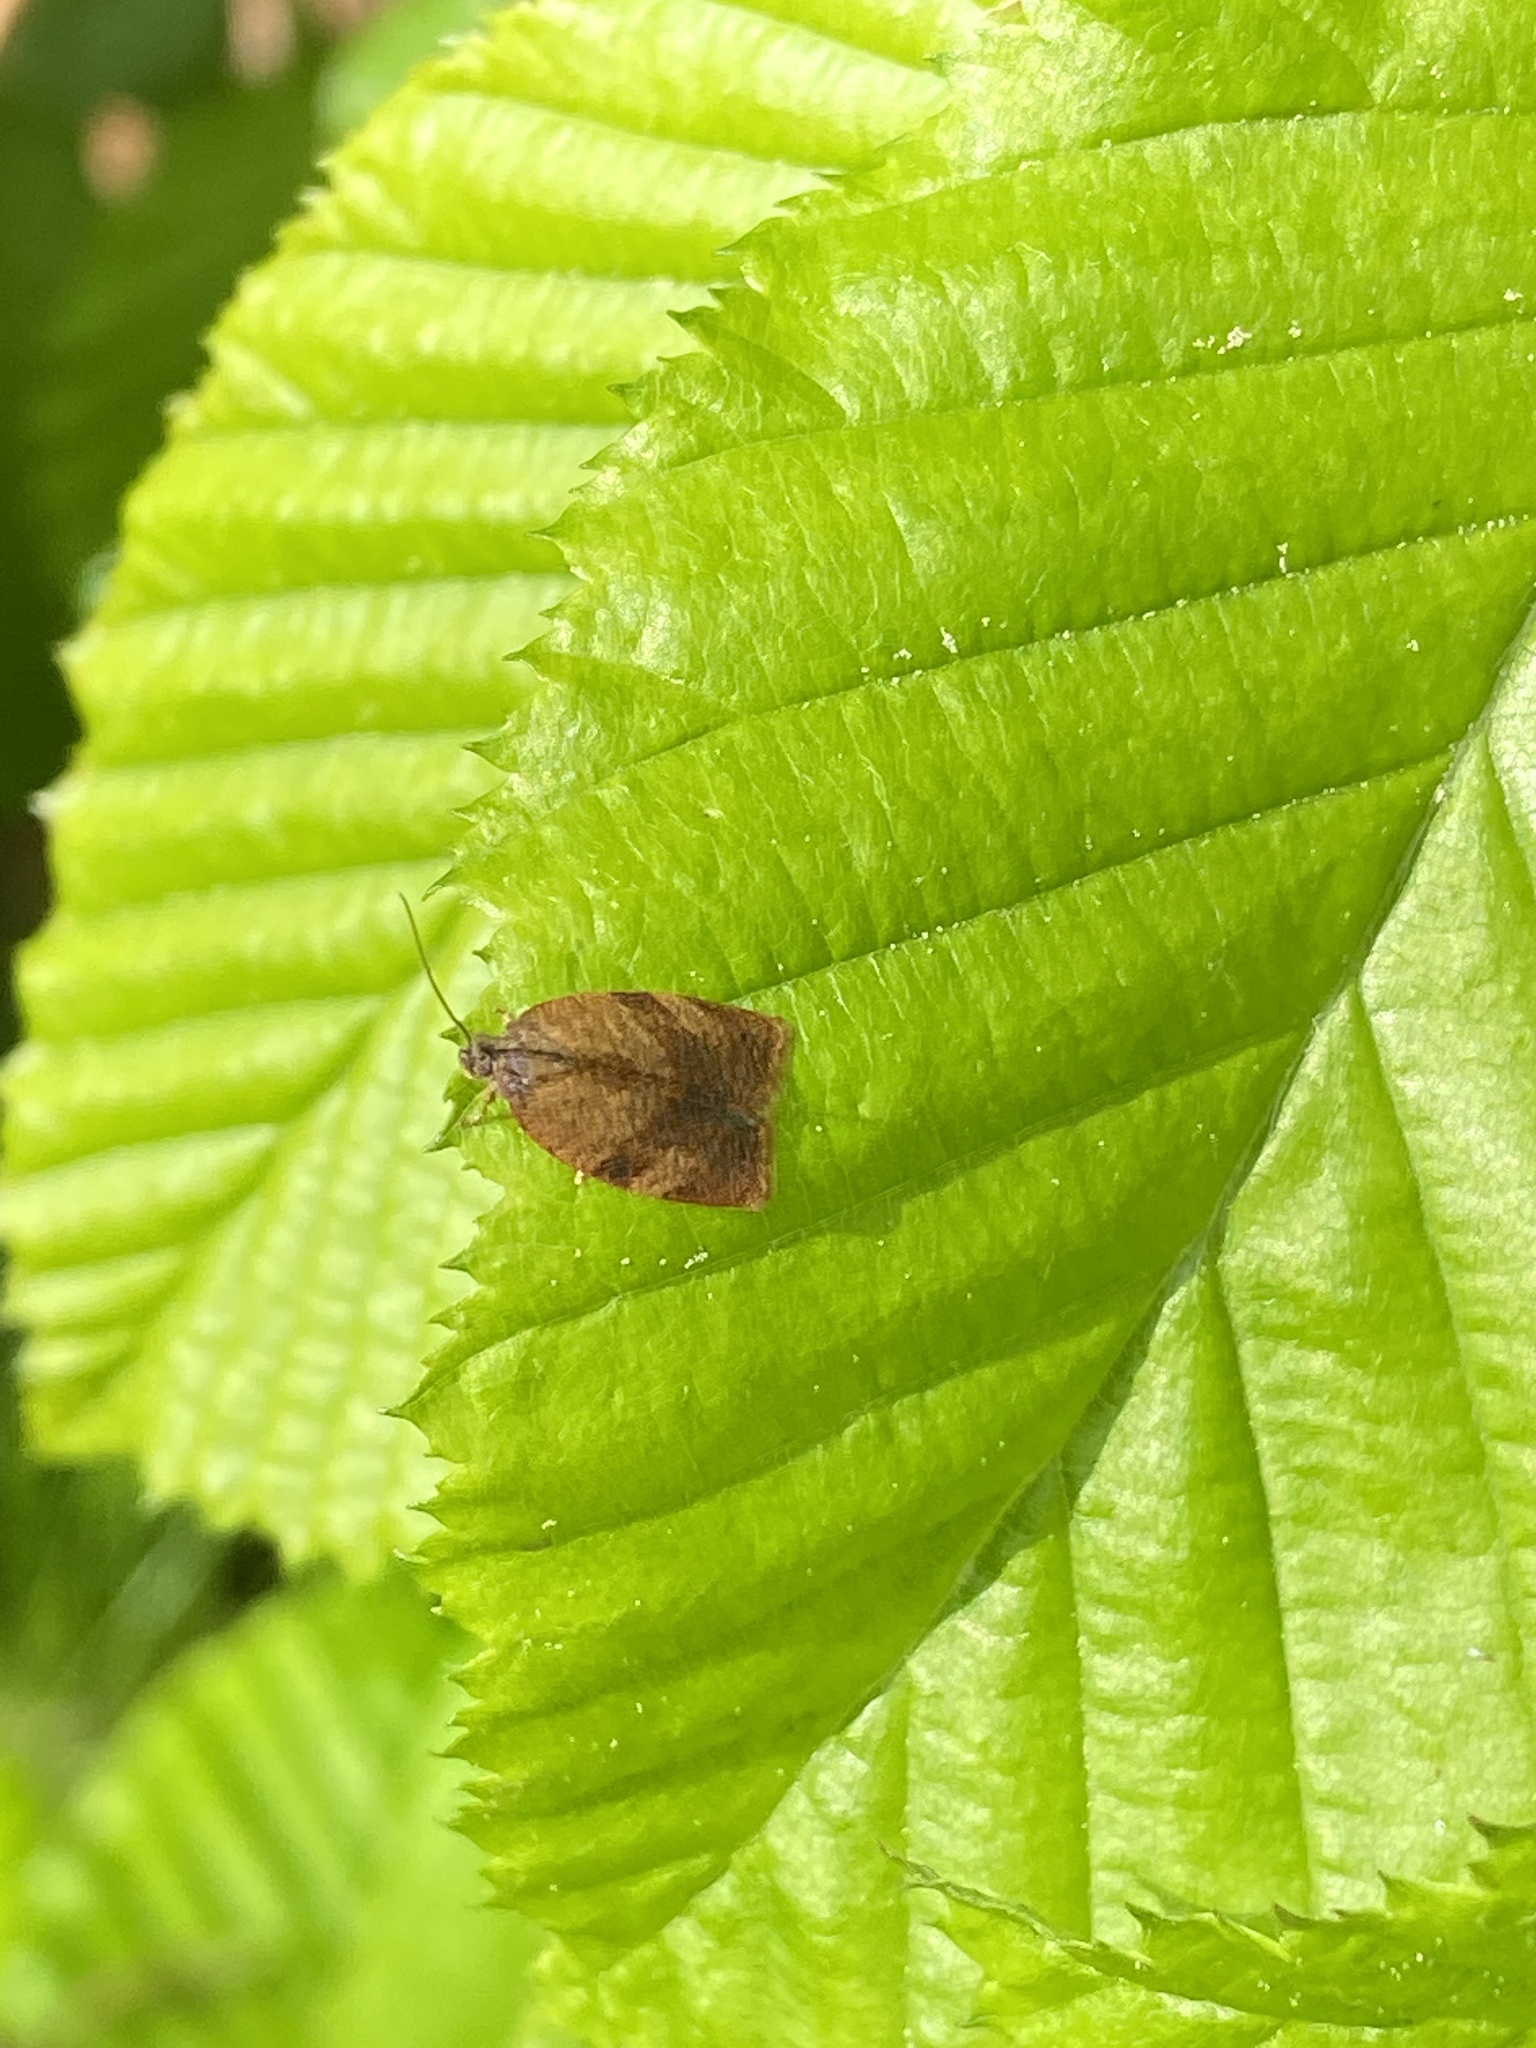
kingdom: Animalia
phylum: Arthropoda
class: Insecta
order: Lepidoptera
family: Tortricidae
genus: Cacoecimorpha
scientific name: Cacoecimorpha pronubana
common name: Carnation tortrix
